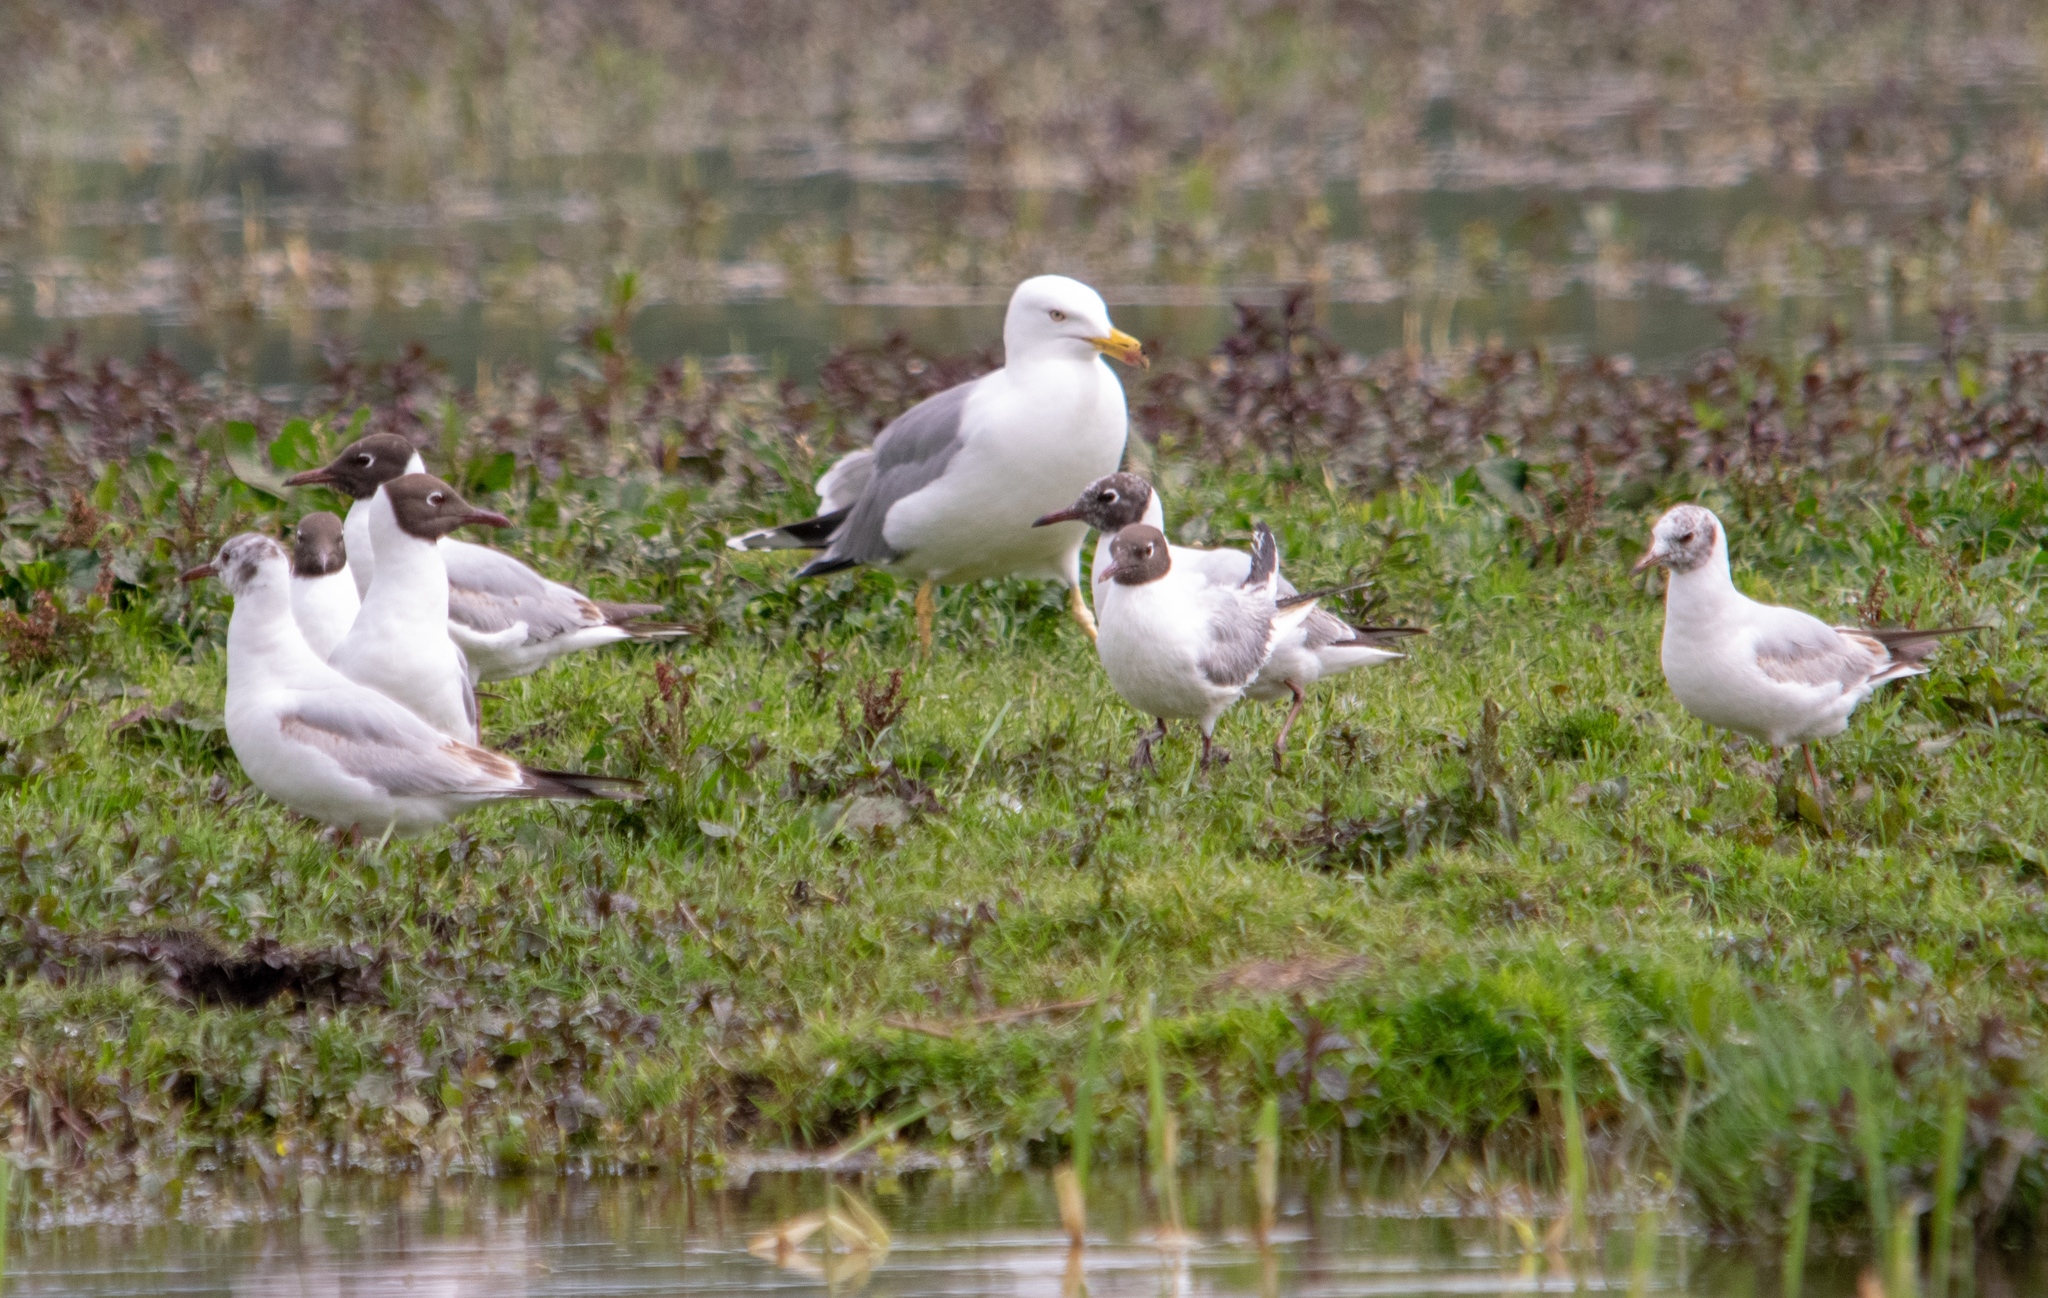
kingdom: Animalia
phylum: Chordata
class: Aves
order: Charadriiformes
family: Laridae
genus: Larus
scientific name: Larus michahellis
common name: Yellow-legged gull
